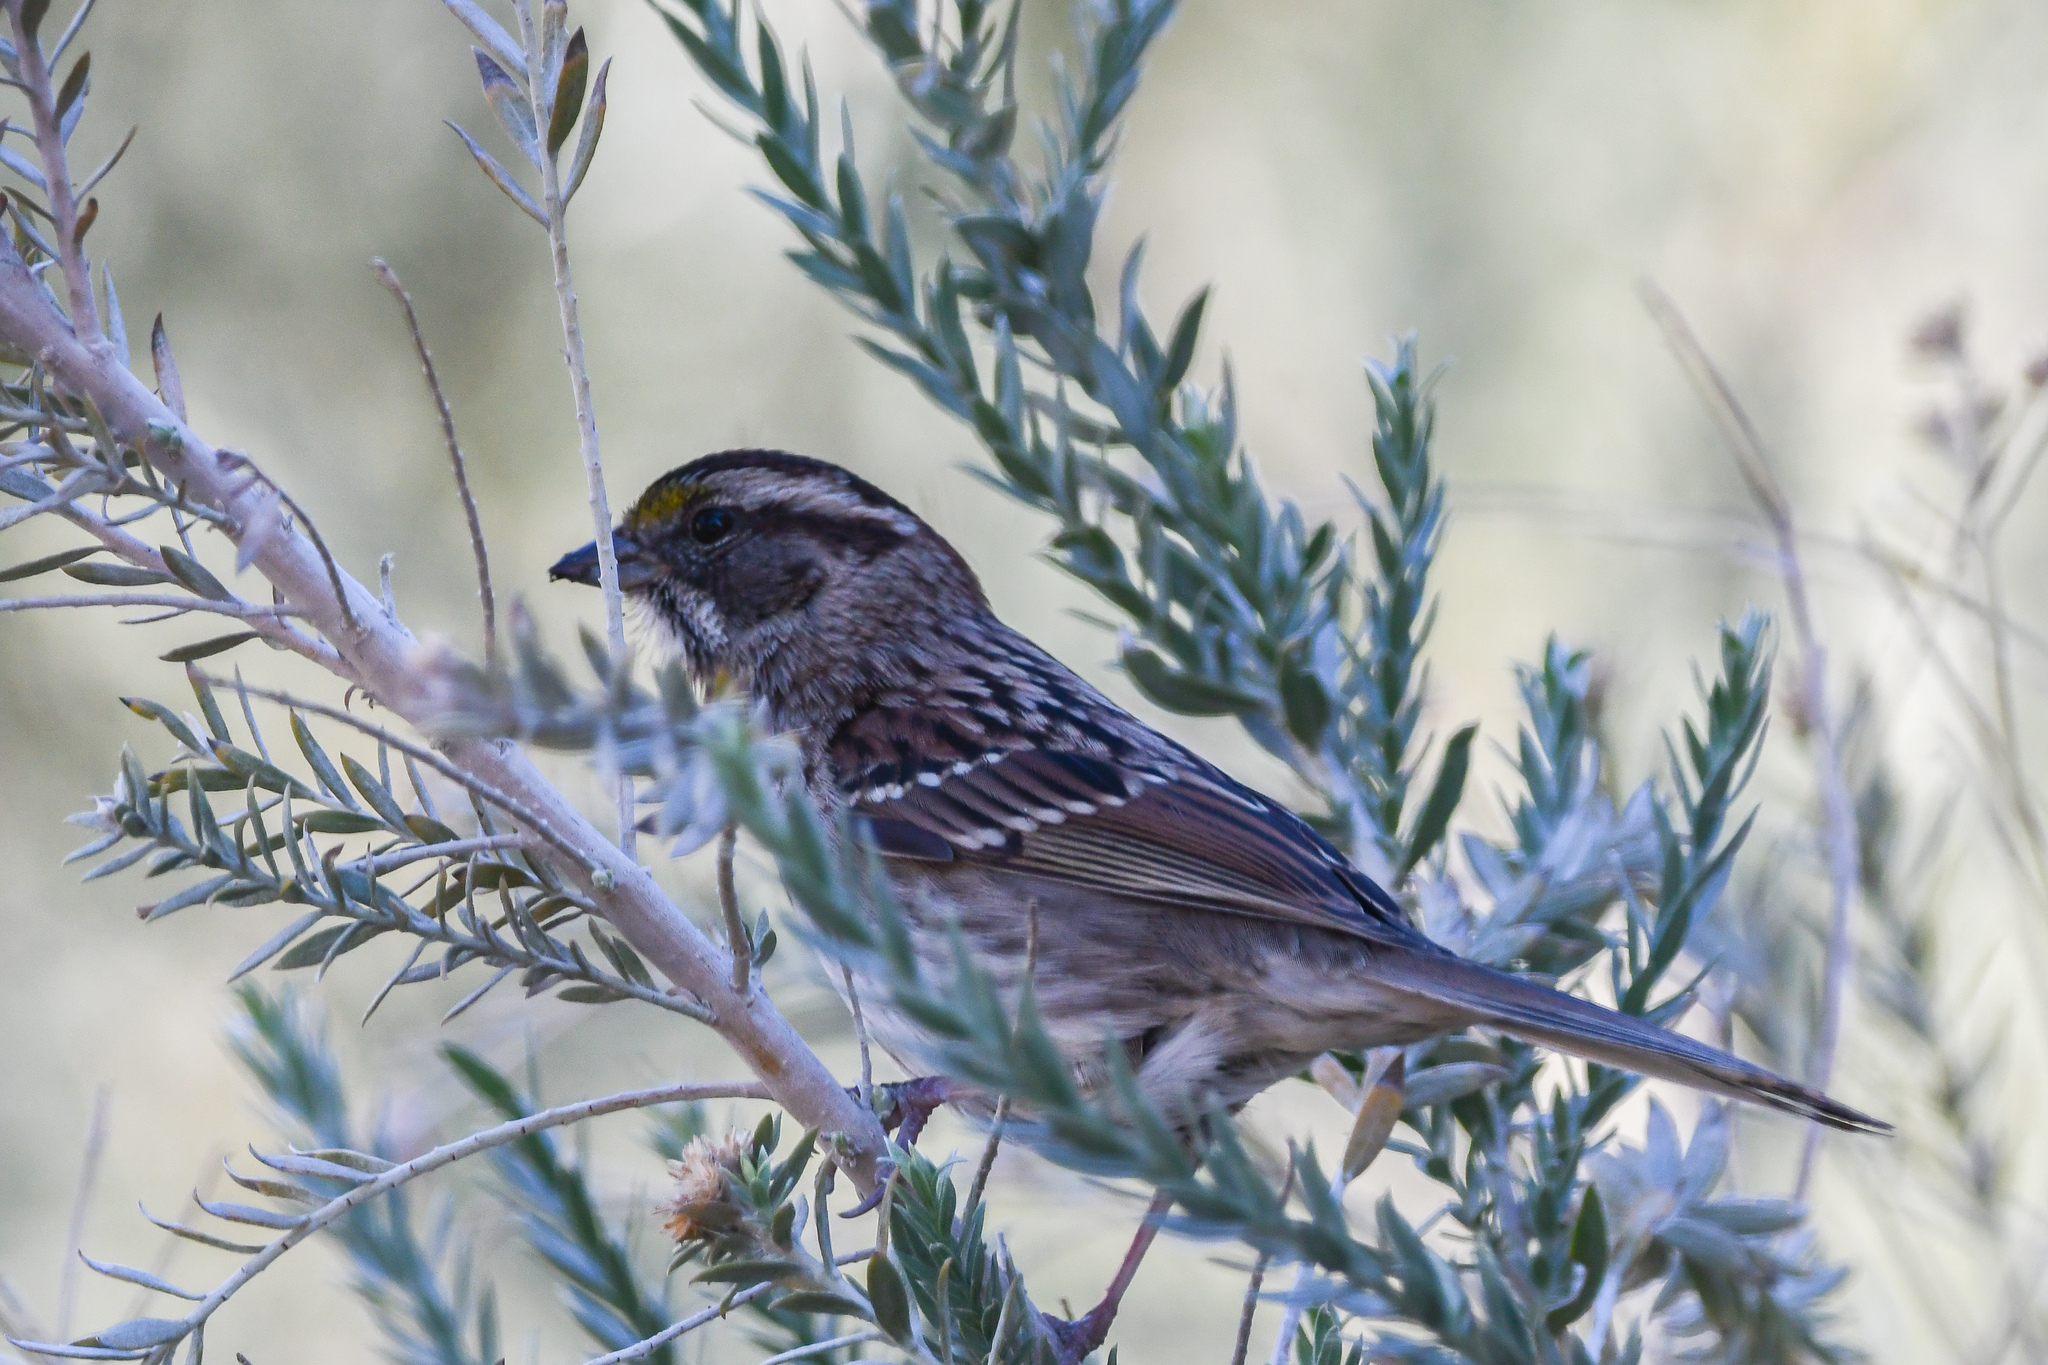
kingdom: Animalia
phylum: Chordata
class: Aves
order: Passeriformes
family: Passerellidae
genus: Zonotrichia
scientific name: Zonotrichia albicollis
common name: White-throated sparrow
